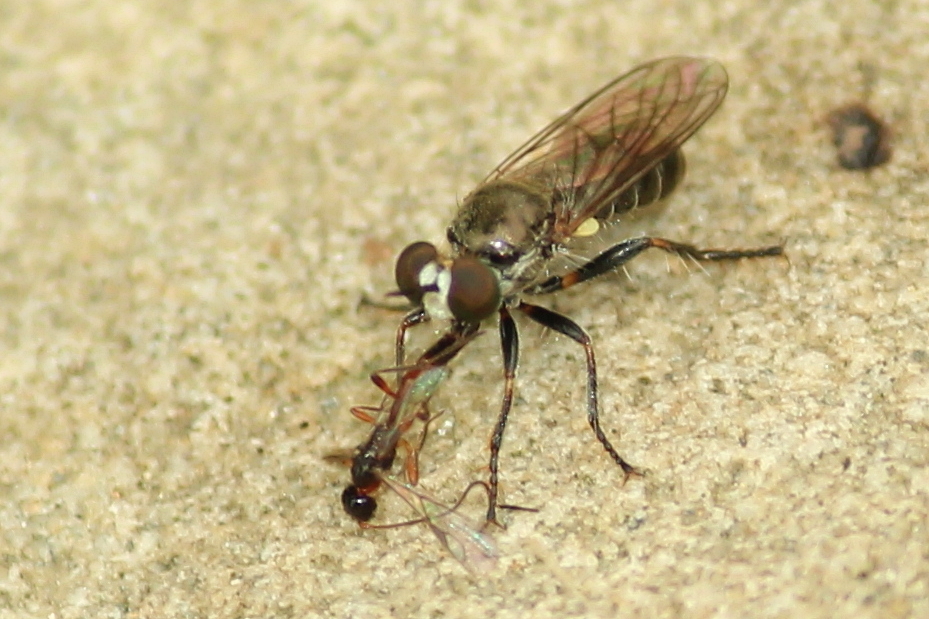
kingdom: Animalia
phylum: Arthropoda
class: Insecta
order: Diptera
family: Asilidae
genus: Atomosia
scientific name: Atomosia puella
